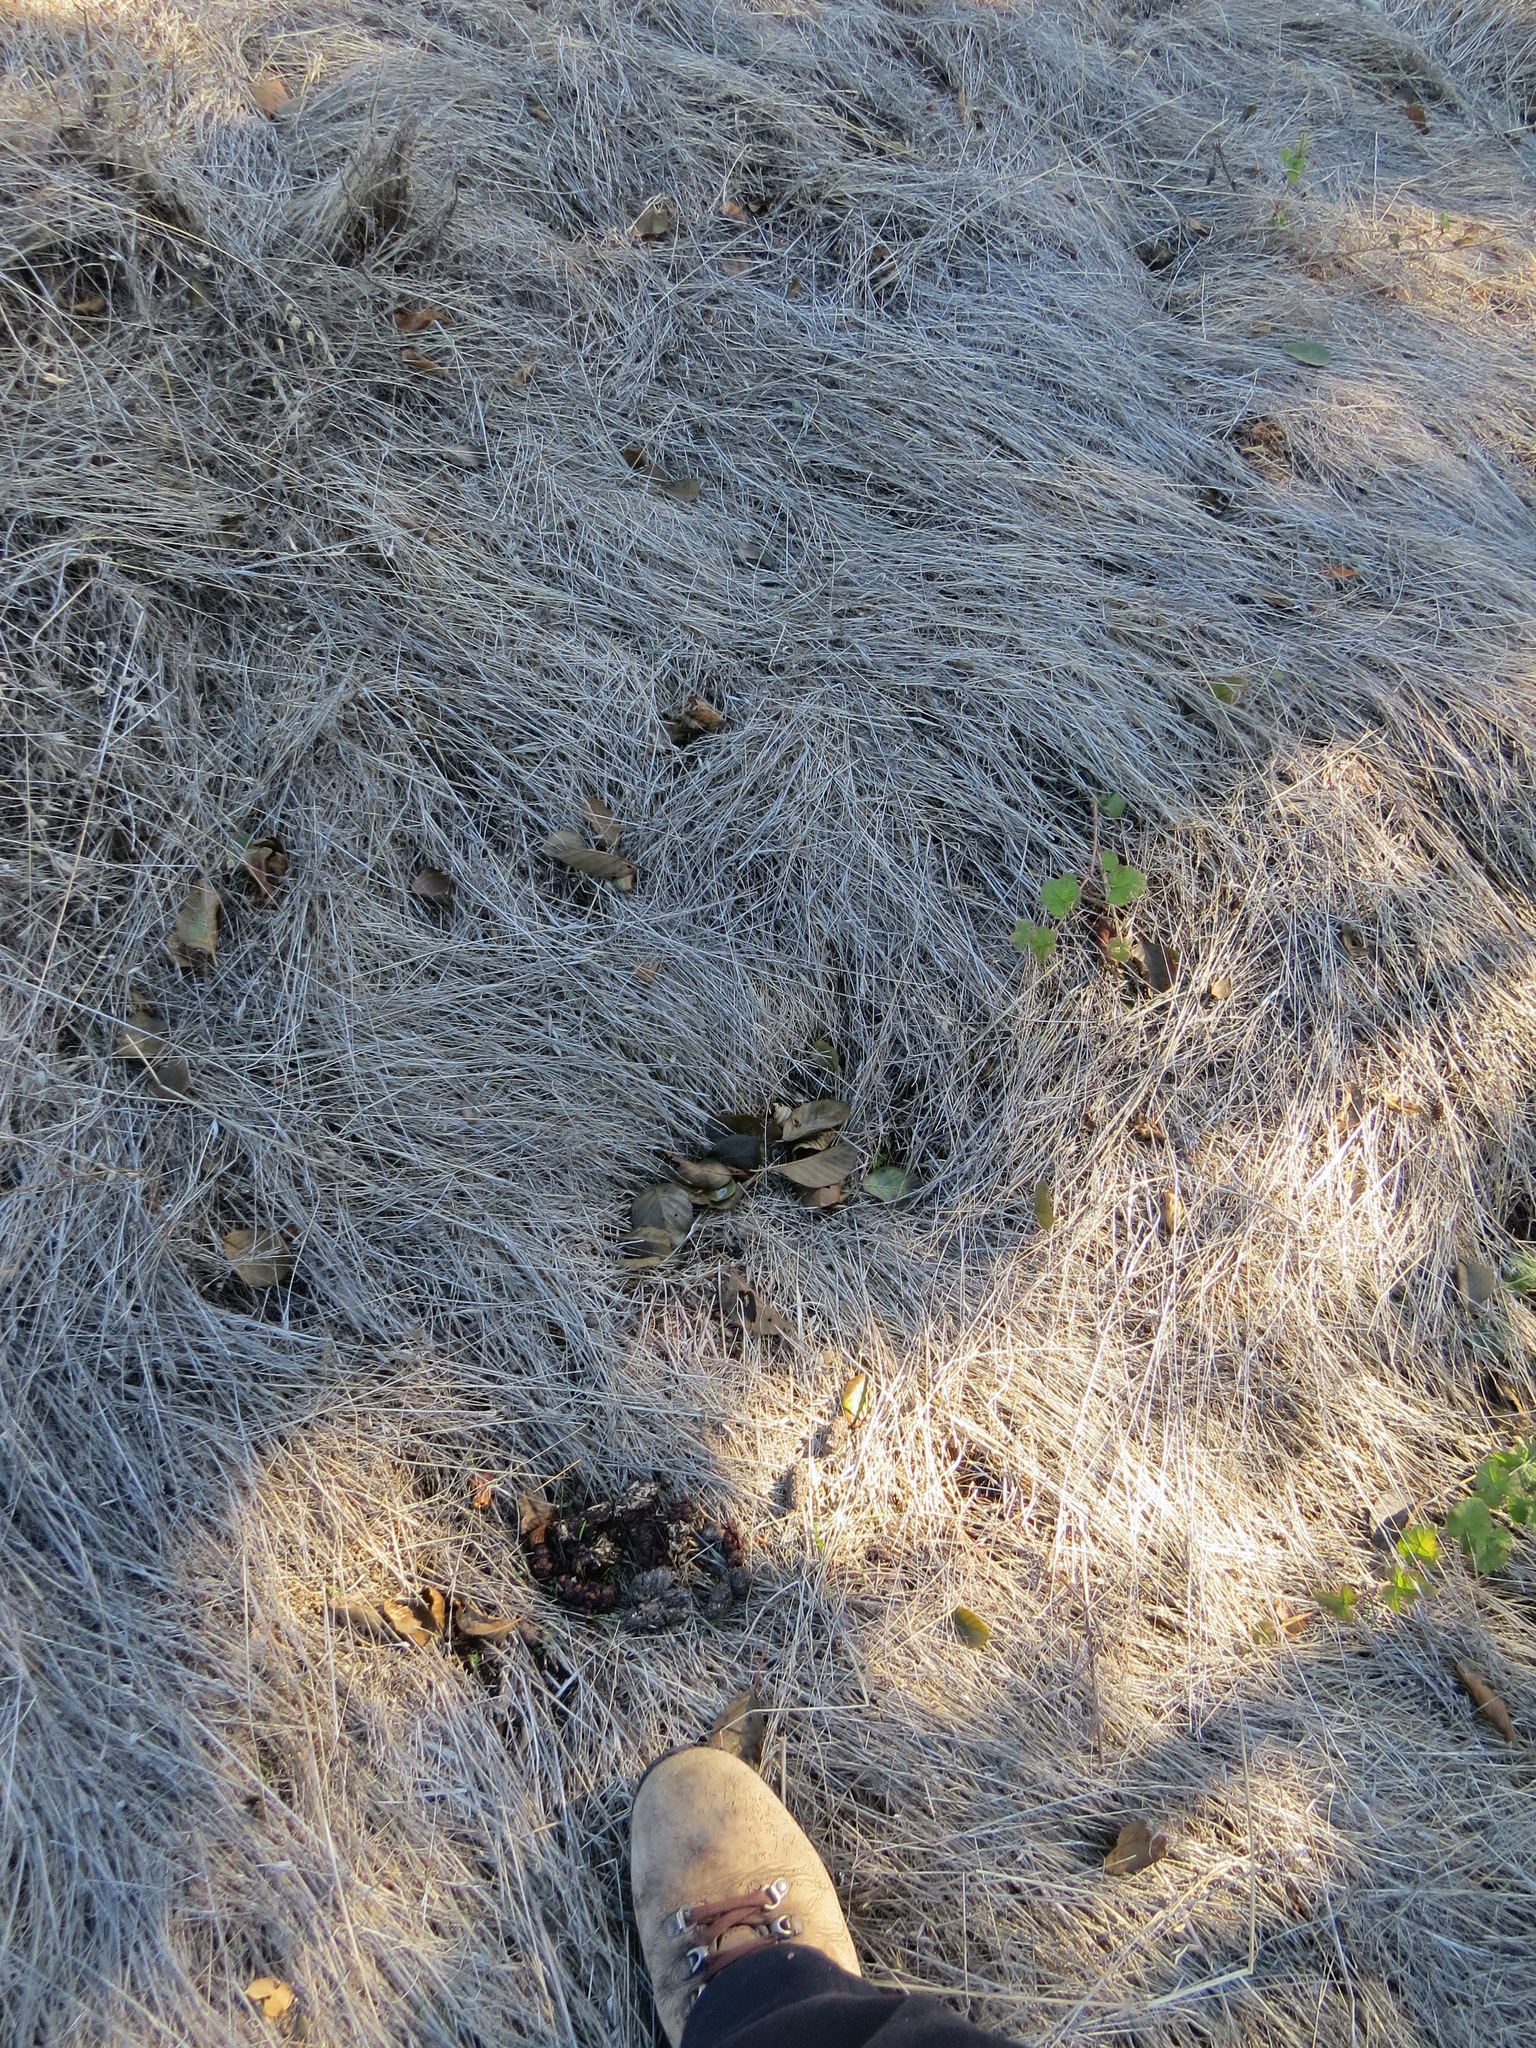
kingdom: Animalia
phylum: Chordata
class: Mammalia
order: Carnivora
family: Canidae
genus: Canis
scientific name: Canis latrans
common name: Coyote
